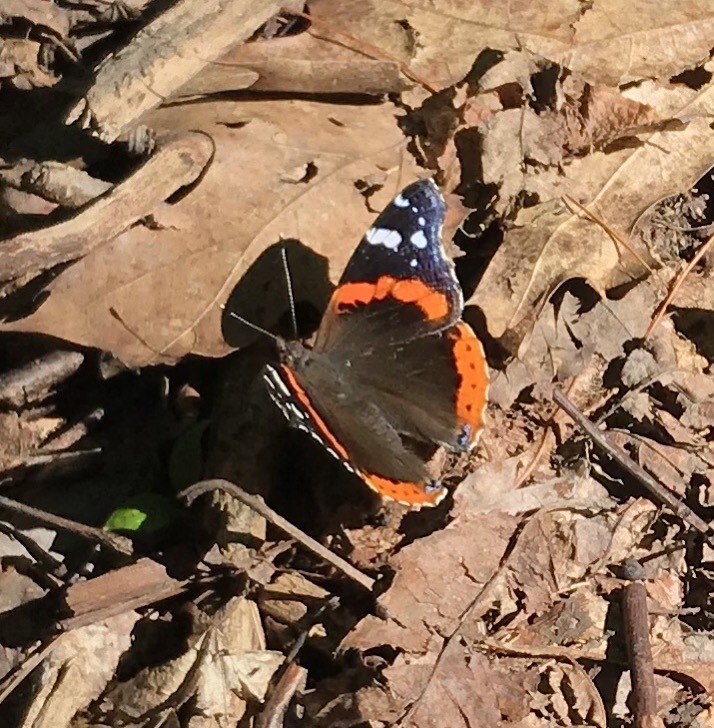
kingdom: Animalia
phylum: Arthropoda
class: Insecta
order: Lepidoptera
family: Nymphalidae
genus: Vanessa
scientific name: Vanessa atalanta
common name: Red admiral
